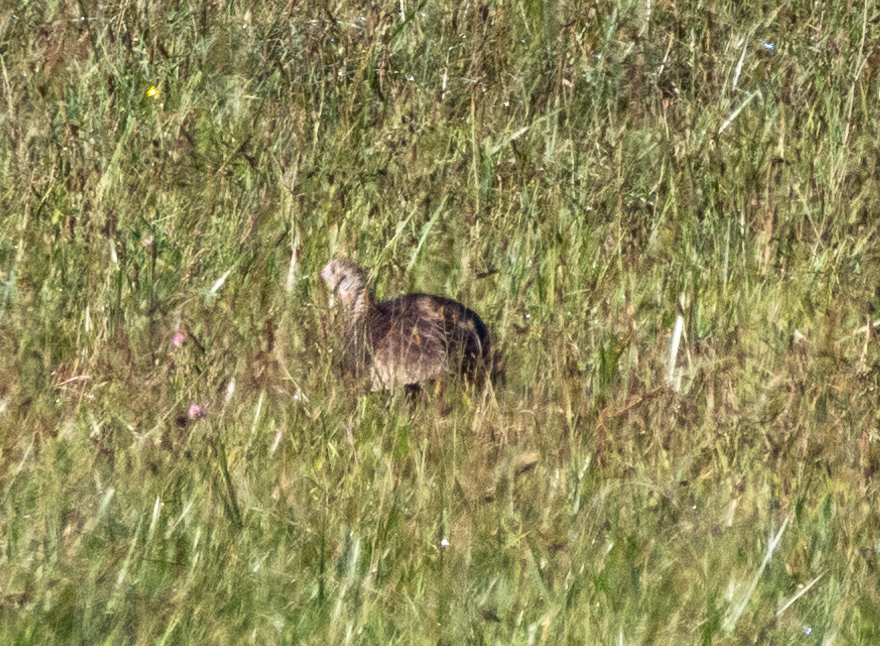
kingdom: Animalia
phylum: Chordata
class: Aves
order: Galliformes
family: Phasianidae
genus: Meleagris
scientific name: Meleagris gallopavo
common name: Wild turkey
